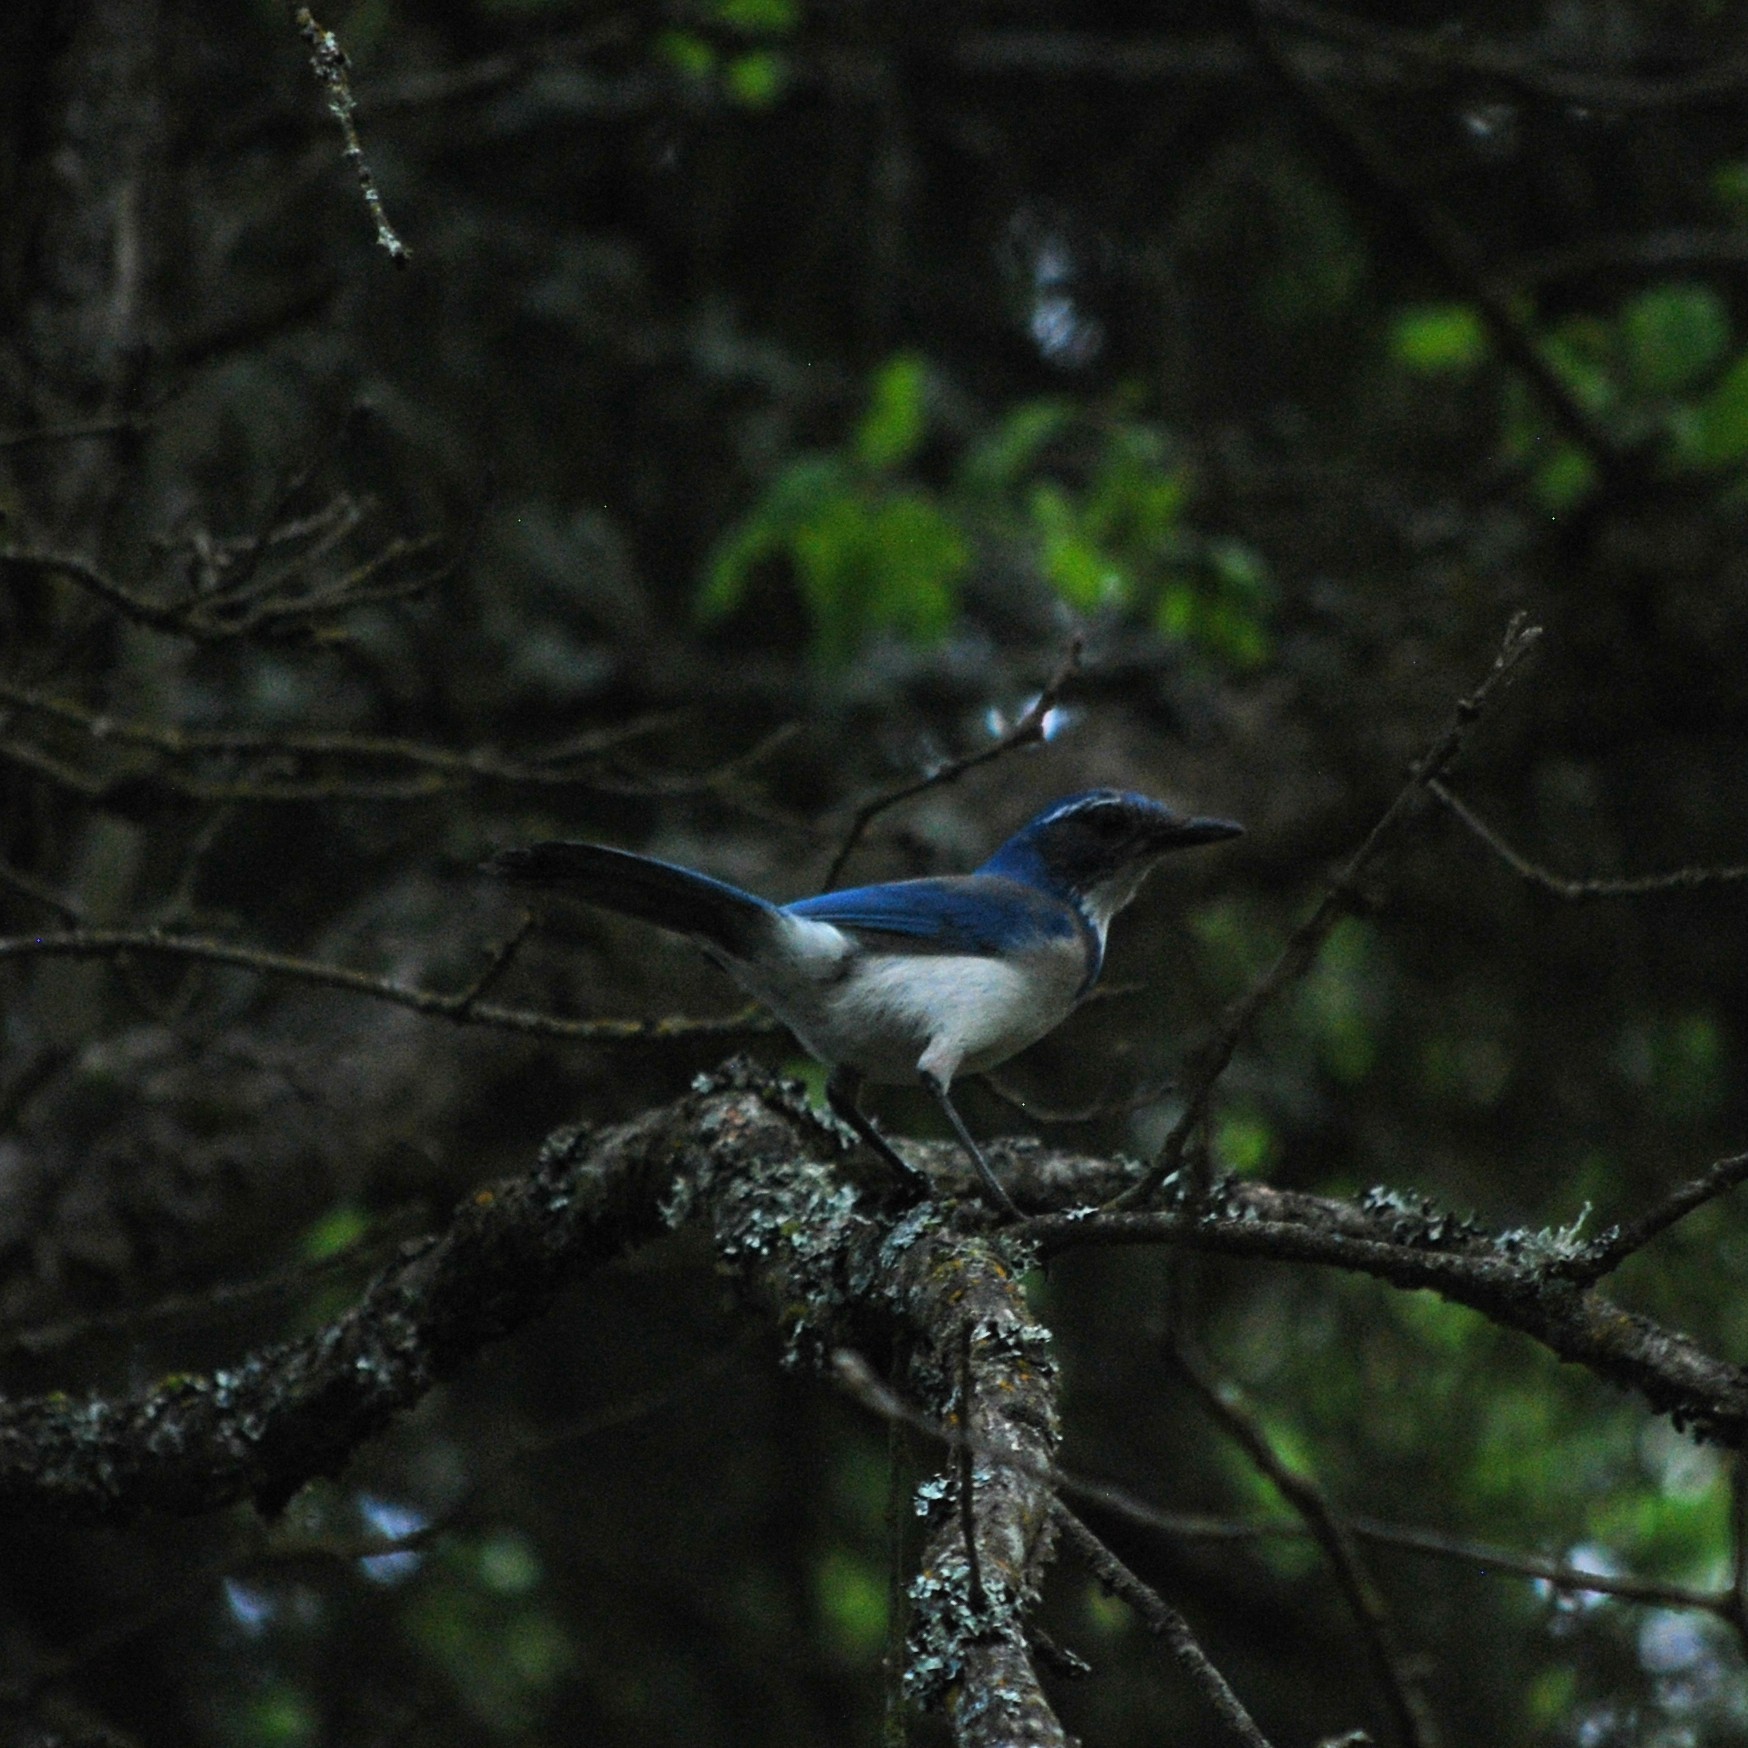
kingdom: Animalia
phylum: Chordata
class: Aves
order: Passeriformes
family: Corvidae
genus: Aphelocoma
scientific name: Aphelocoma californica
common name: California scrub-jay
